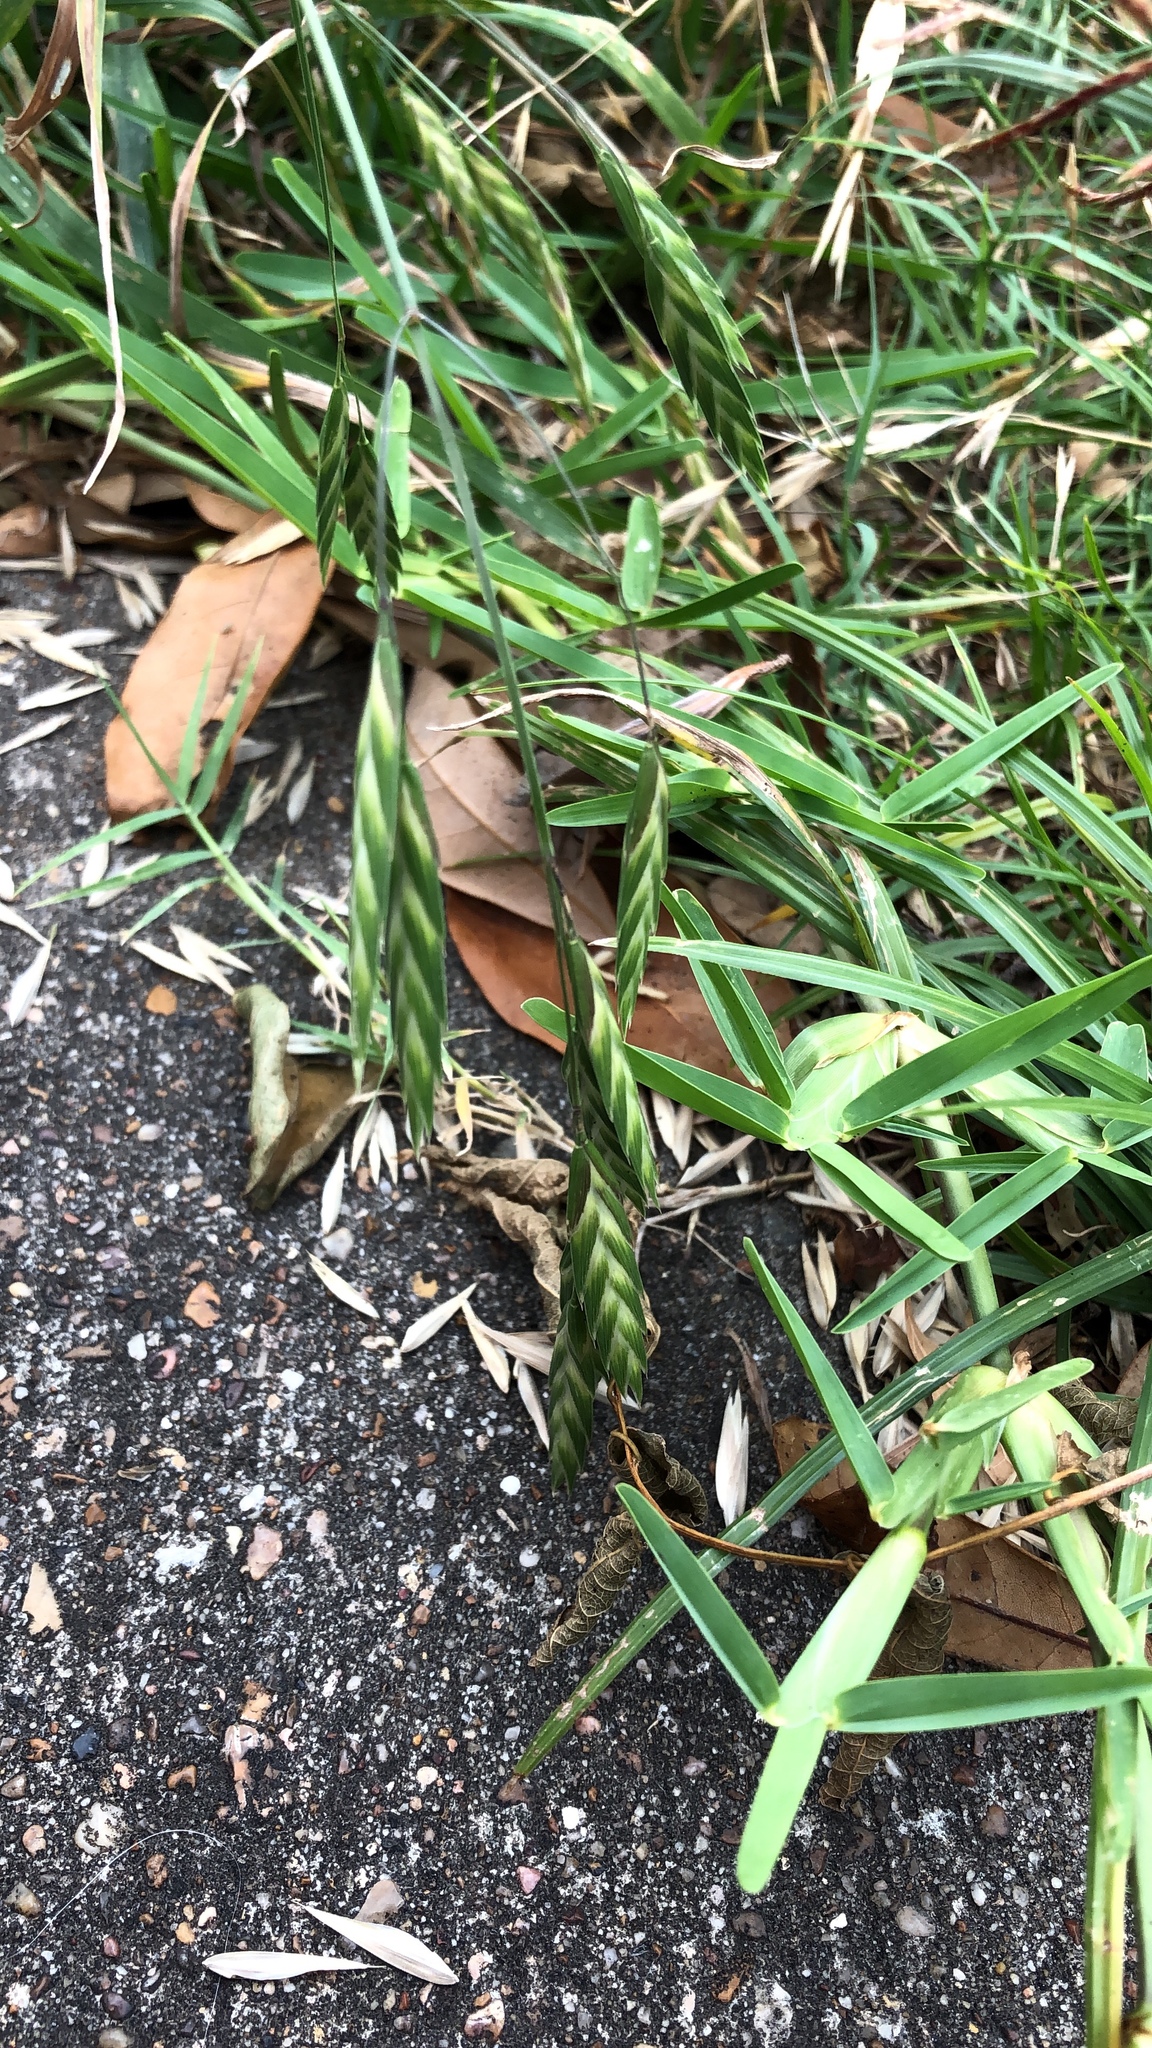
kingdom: Plantae
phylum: Tracheophyta
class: Liliopsida
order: Poales
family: Poaceae
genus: Bromus
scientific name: Bromus catharticus
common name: Rescuegrass
